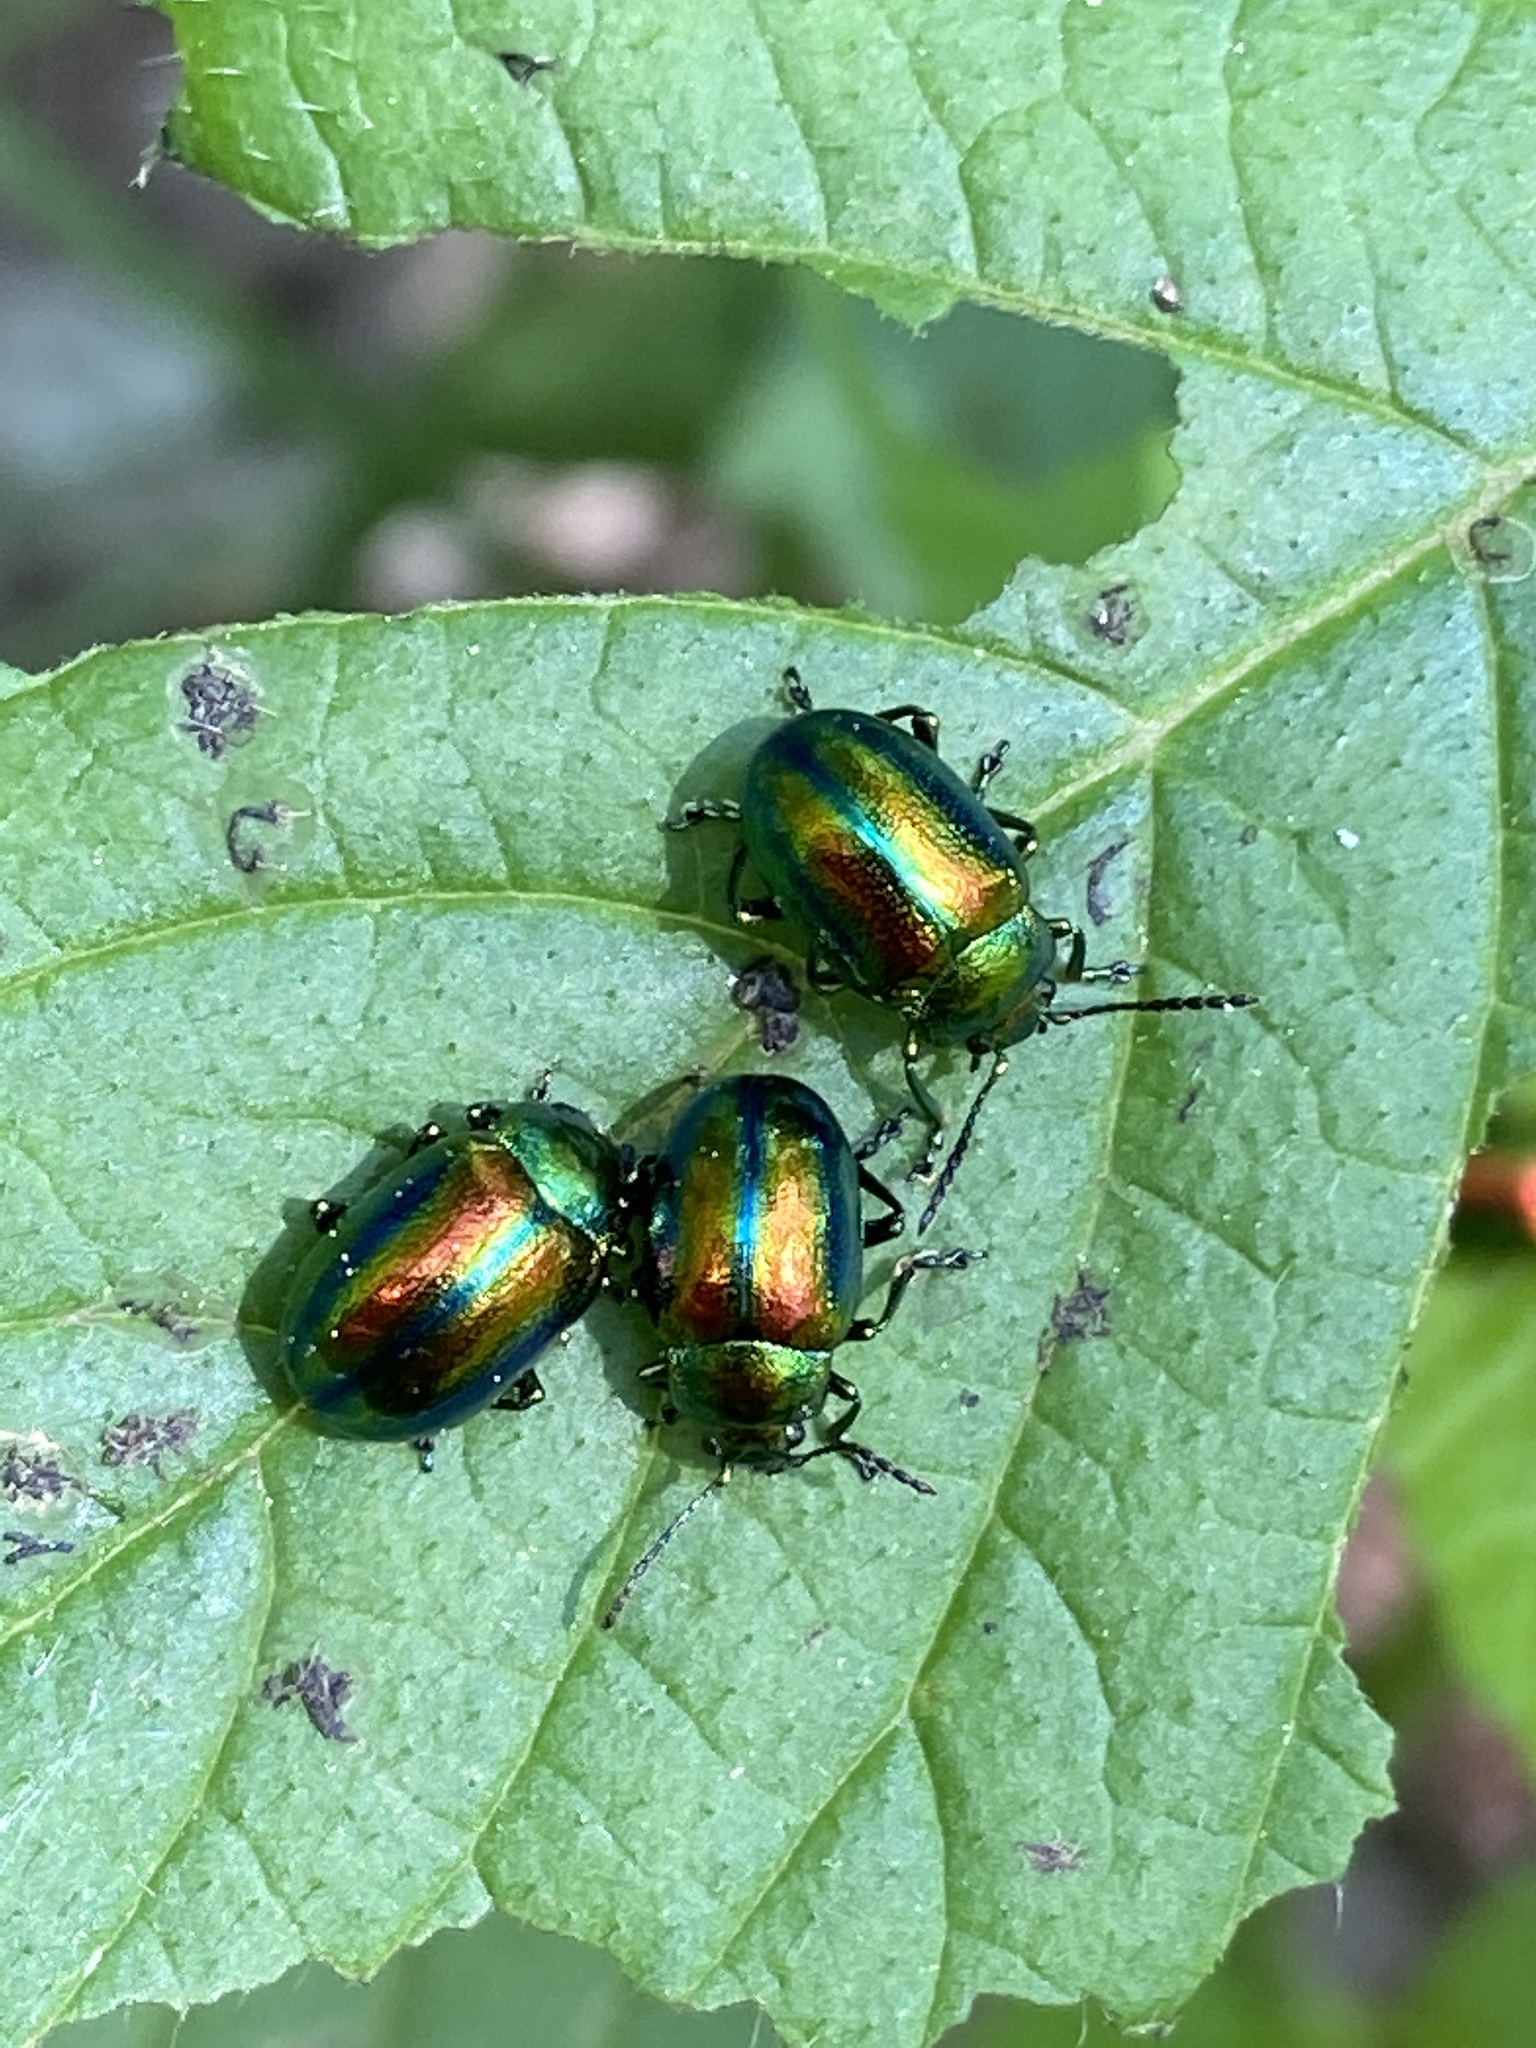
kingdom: Animalia
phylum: Arthropoda
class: Insecta
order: Coleoptera
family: Chrysomelidae
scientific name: Chrysomelidae
